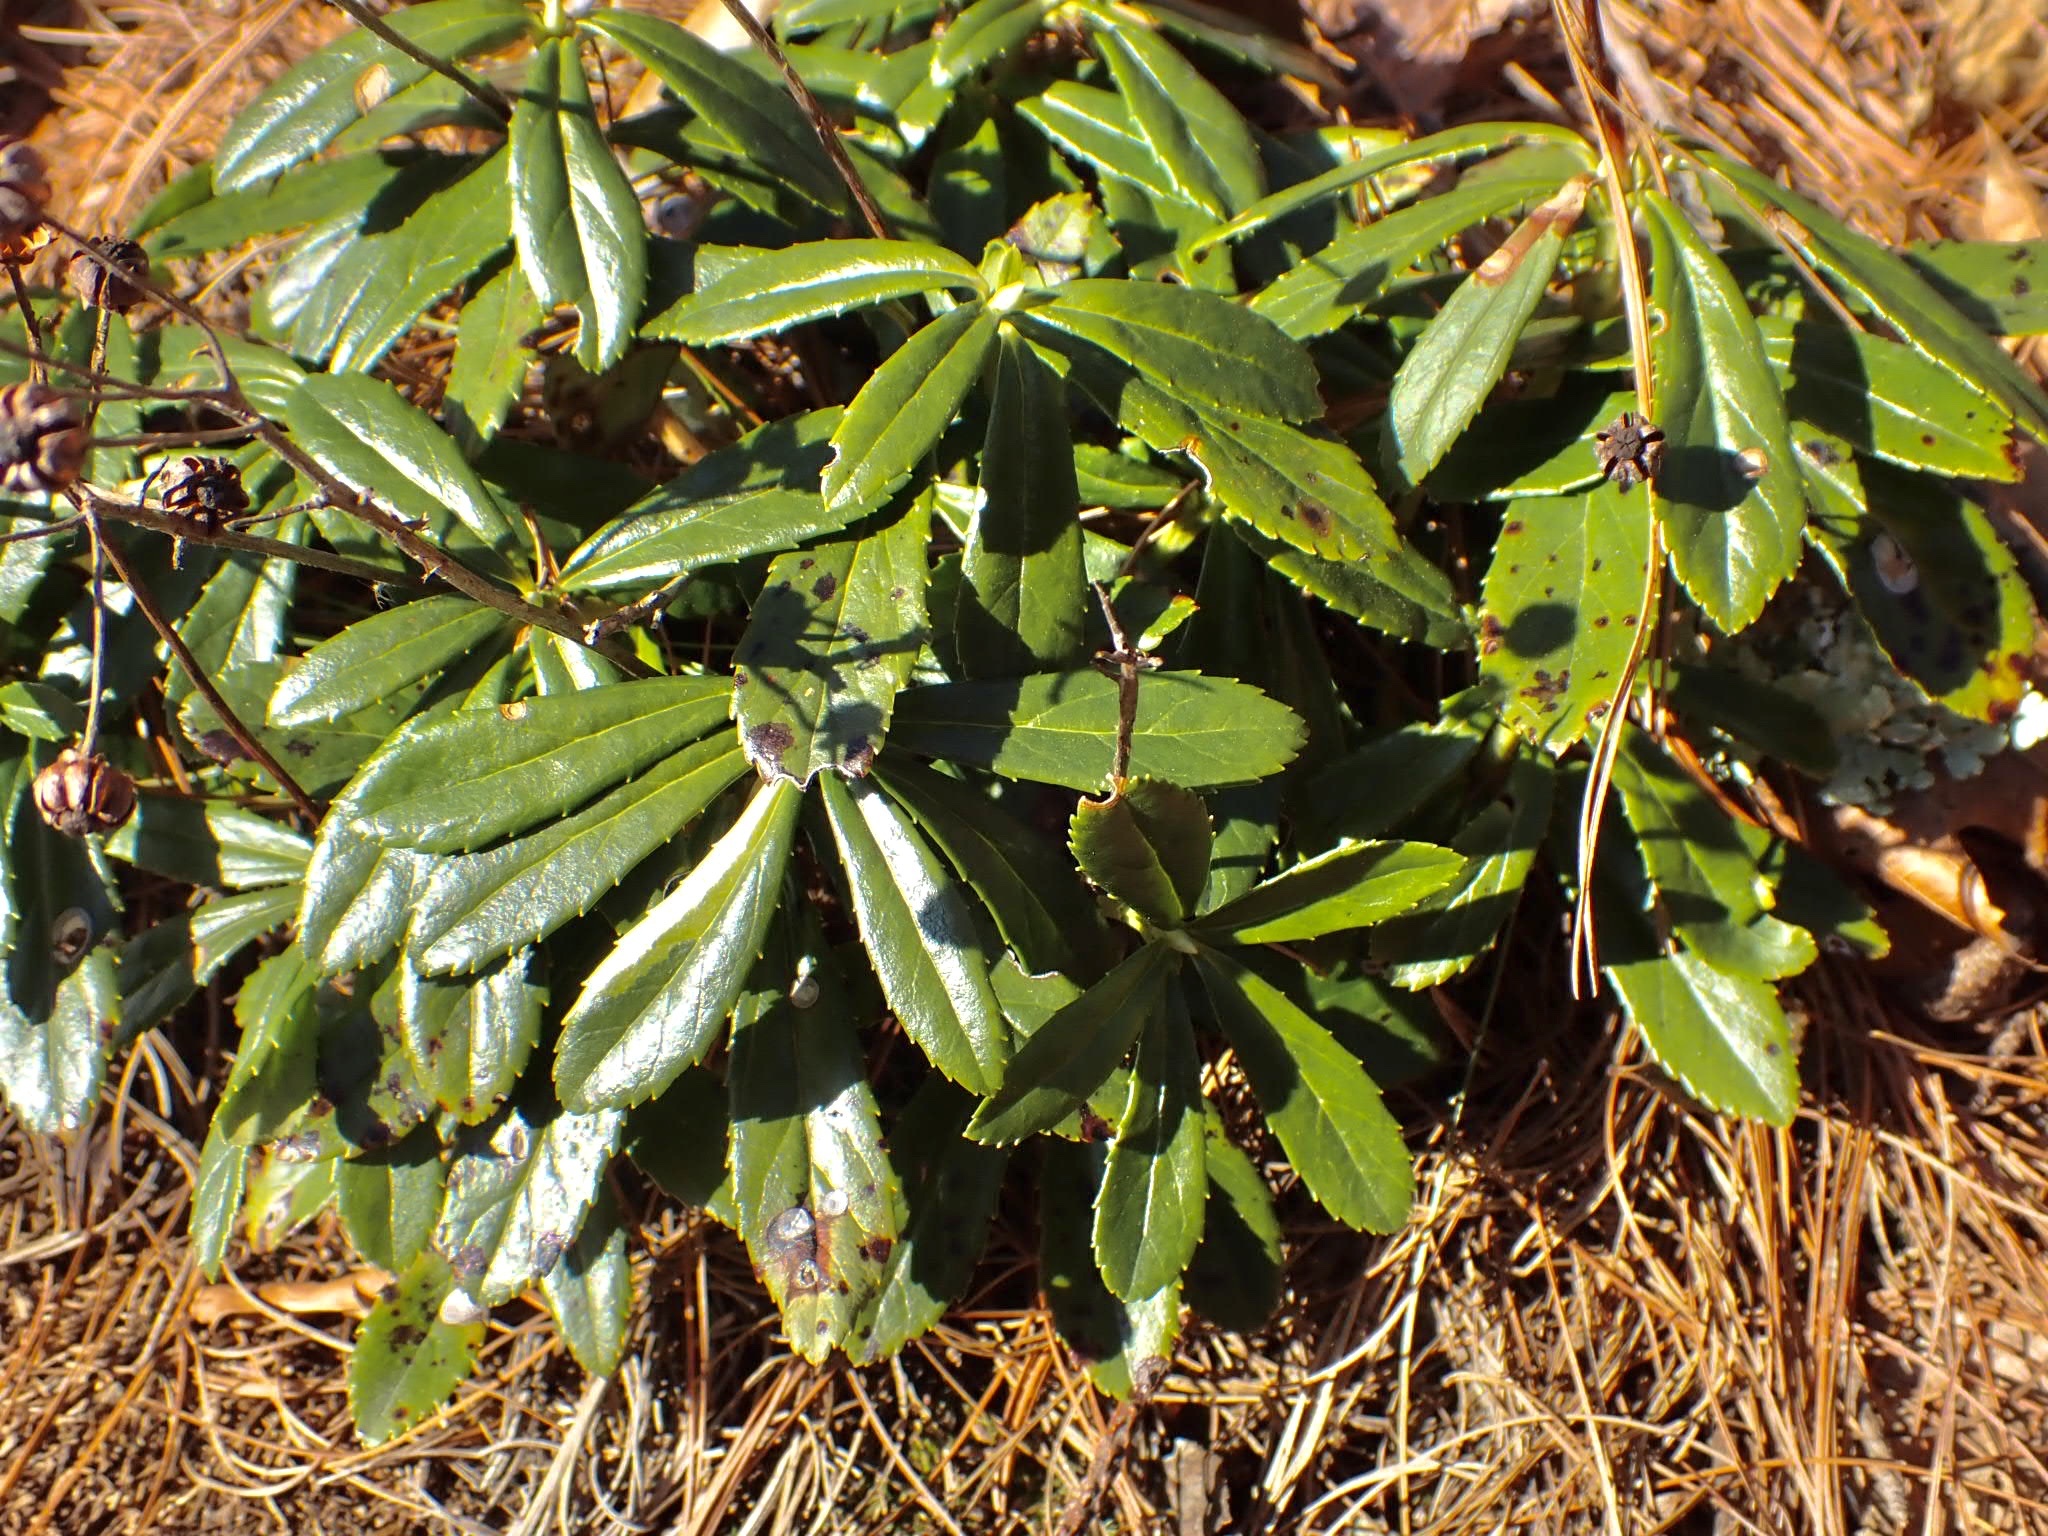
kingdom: Plantae
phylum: Tracheophyta
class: Magnoliopsida
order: Ericales
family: Ericaceae
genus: Chimaphila
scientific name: Chimaphila umbellata
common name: Pipsissewa
